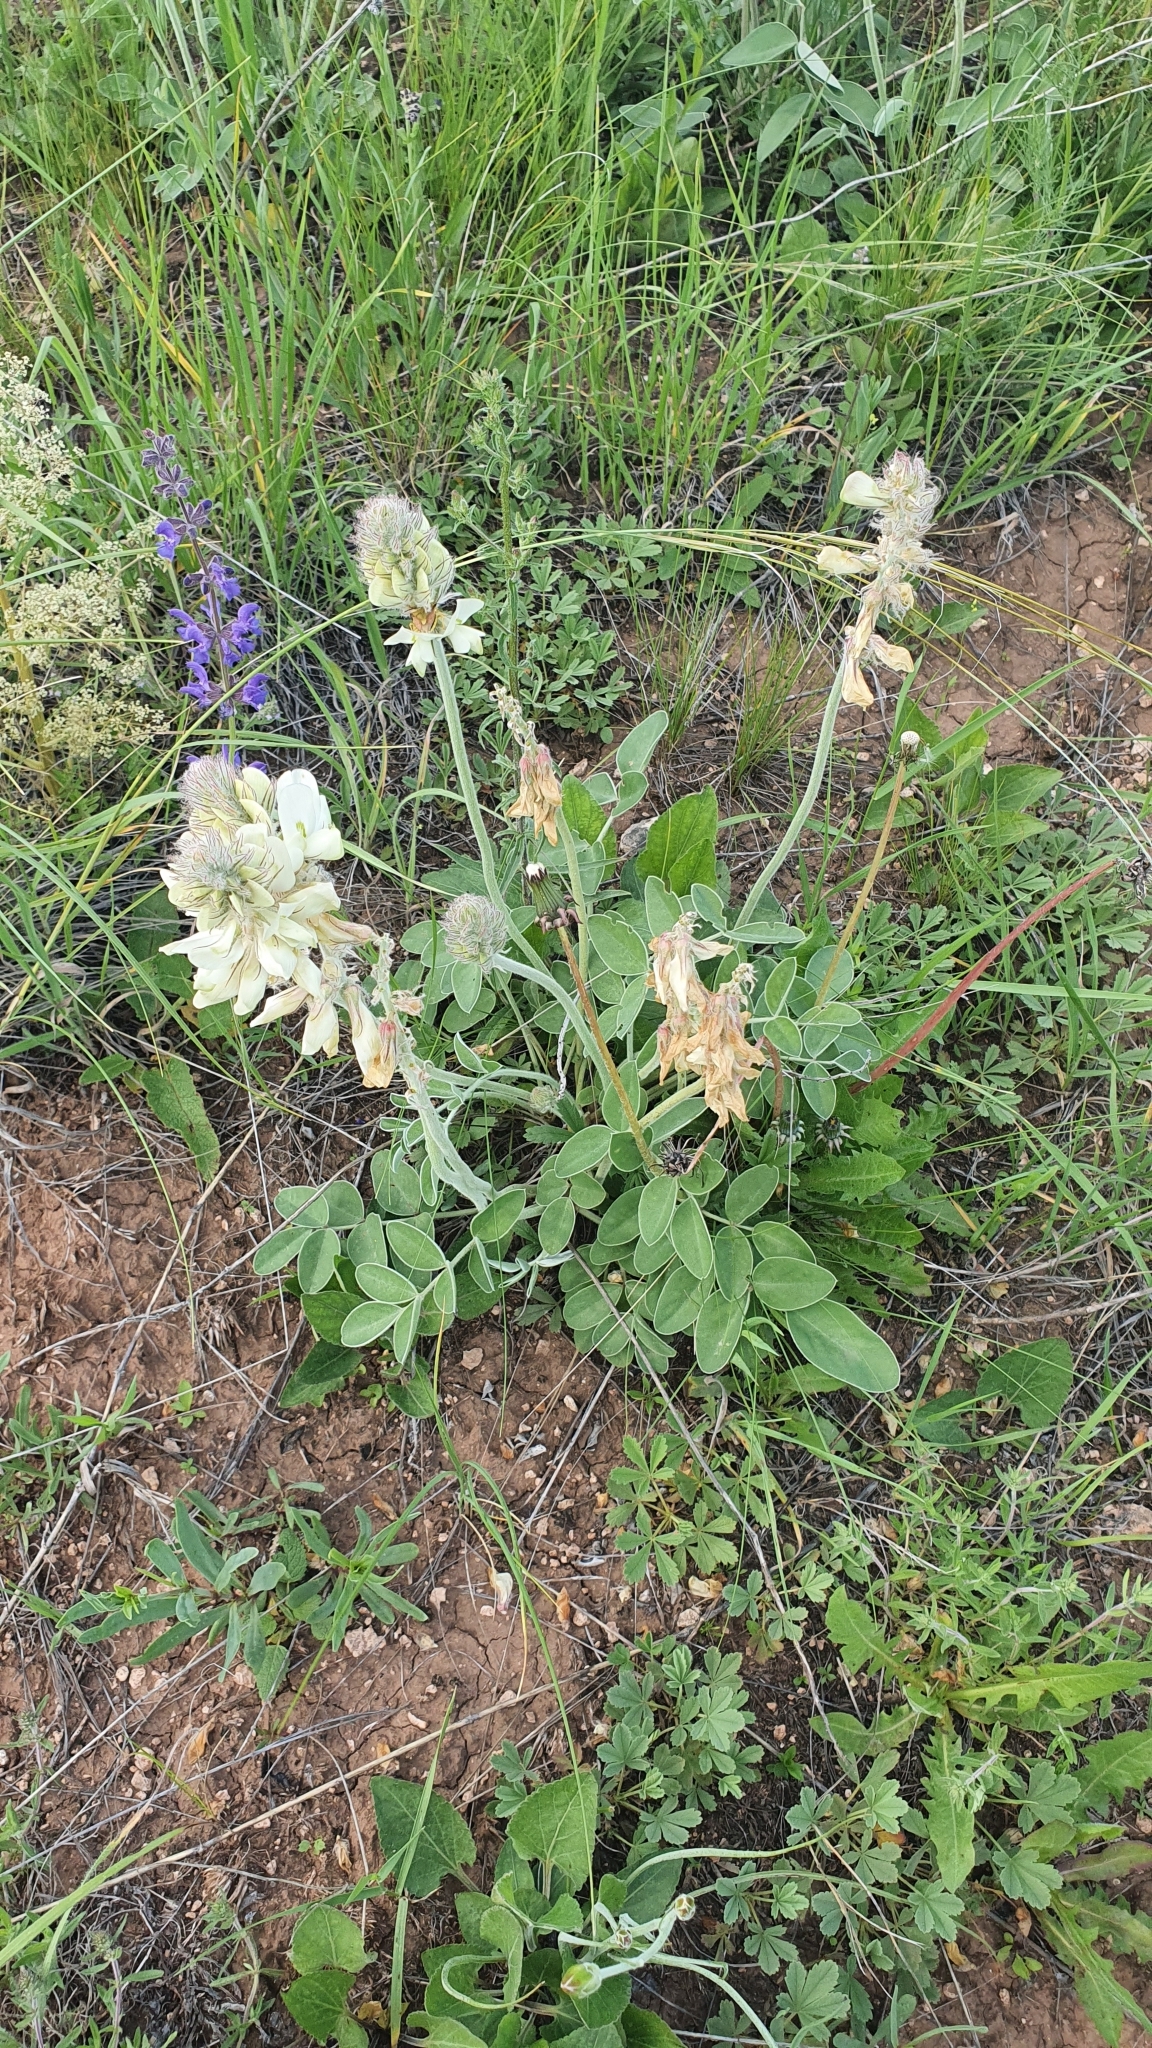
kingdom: Plantae
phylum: Tracheophyta
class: Magnoliopsida
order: Fabales
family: Fabaceae
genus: Hedysarum
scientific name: Hedysarum grandiflorum
